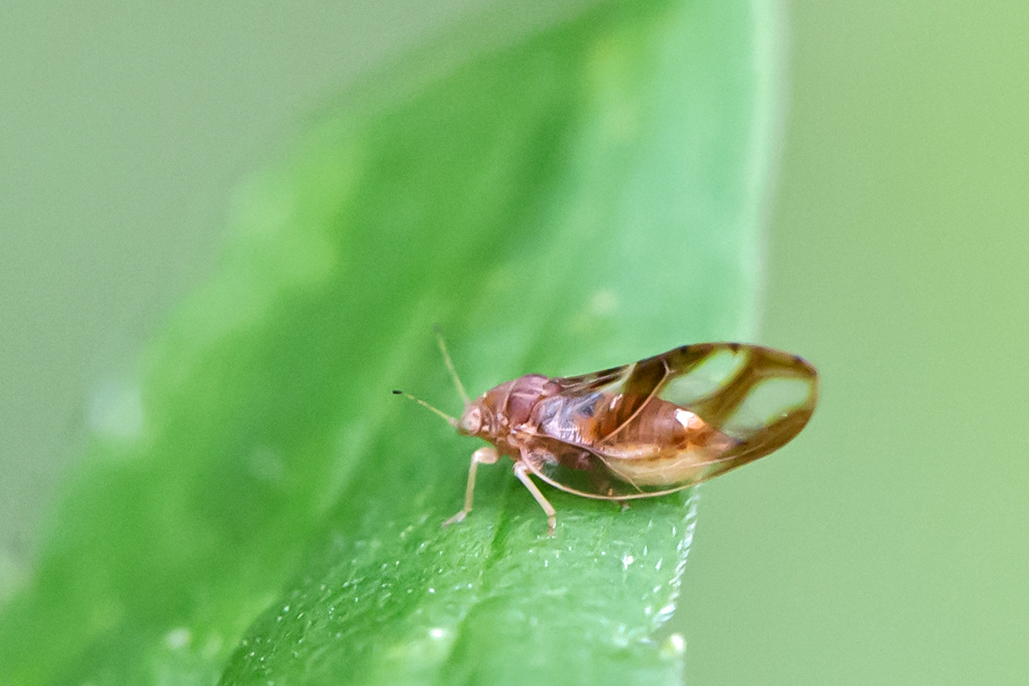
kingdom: Animalia
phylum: Arthropoda
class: Insecta
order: Hemiptera
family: Triozidae
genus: Phylloplecta
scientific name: Phylloplecta tripunctata
